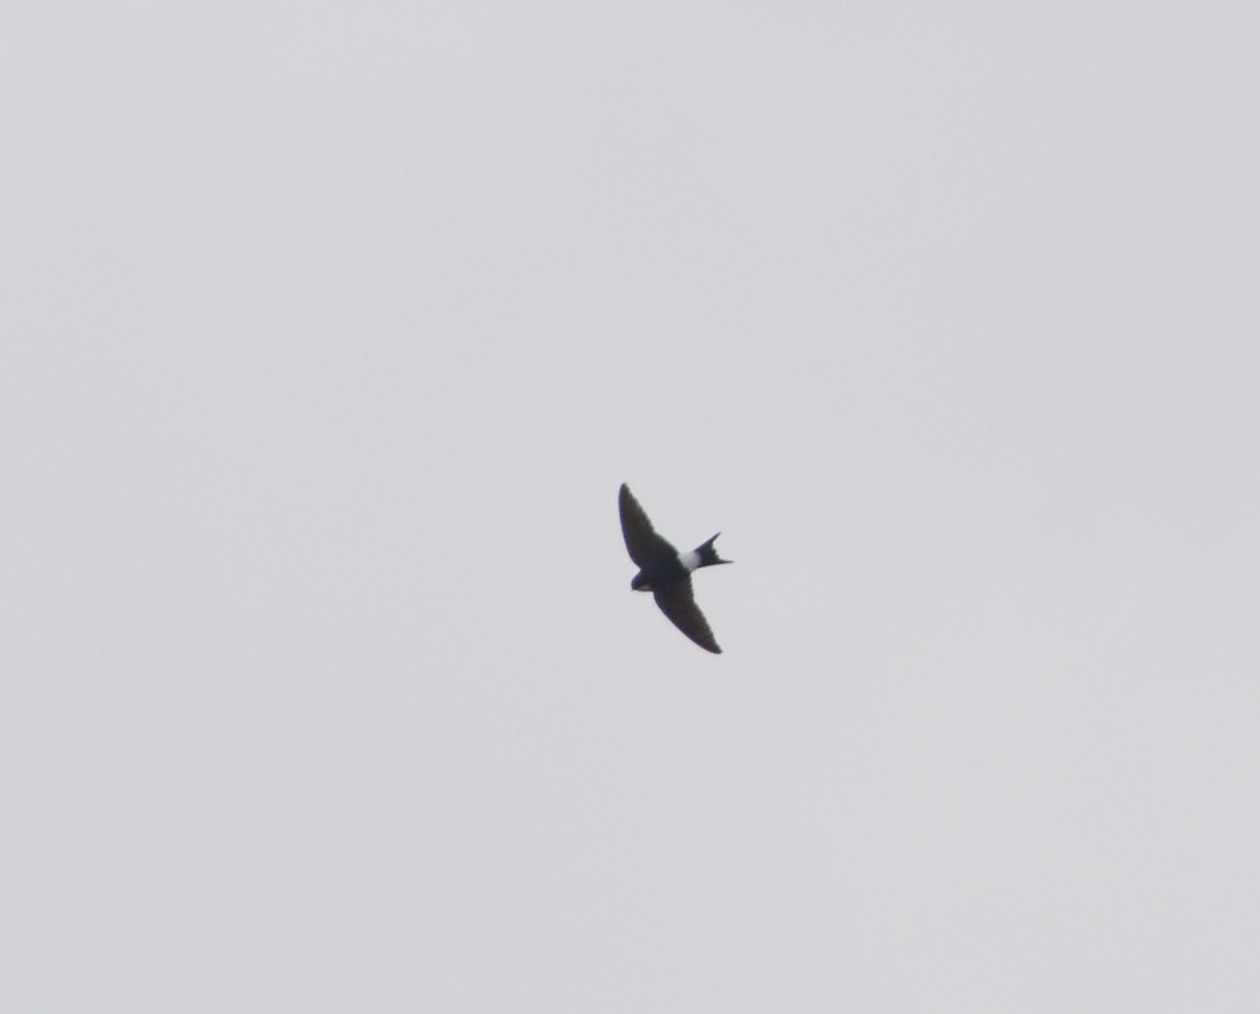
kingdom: Animalia
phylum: Chordata
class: Aves
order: Passeriformes
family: Hirundinidae
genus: Delichon
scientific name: Delichon urbicum
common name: Common house martin
